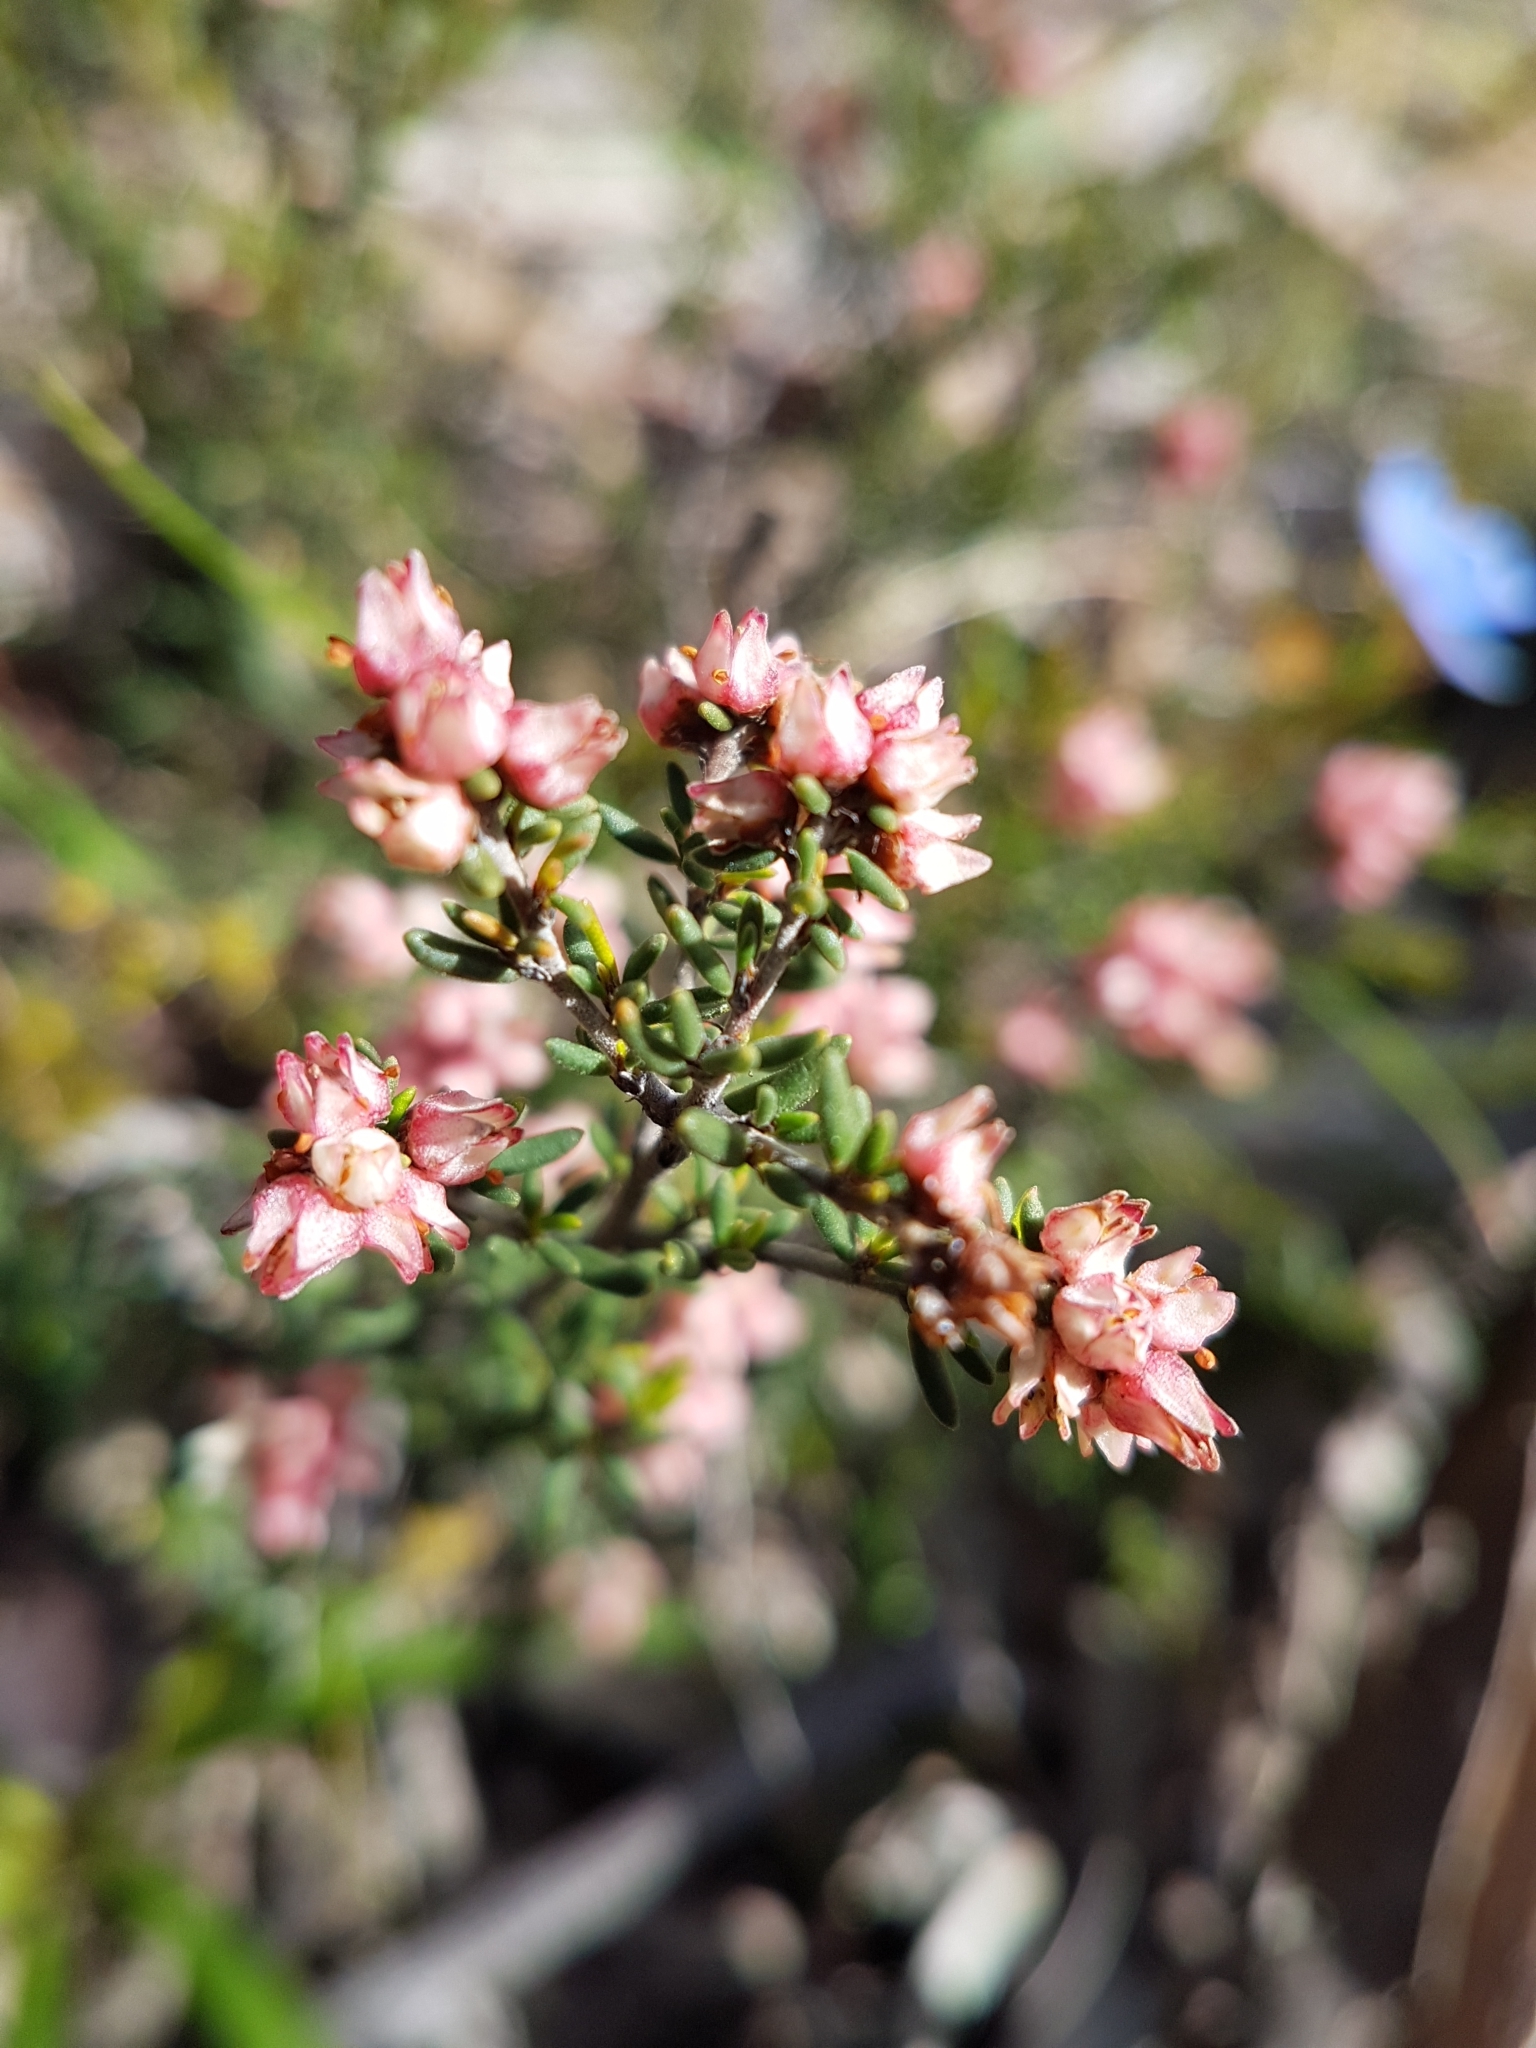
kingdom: Plantae
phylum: Tracheophyta
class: Magnoliopsida
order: Rosales
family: Rhamnaceae
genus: Cryptandra
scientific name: Cryptandra tomentosa
